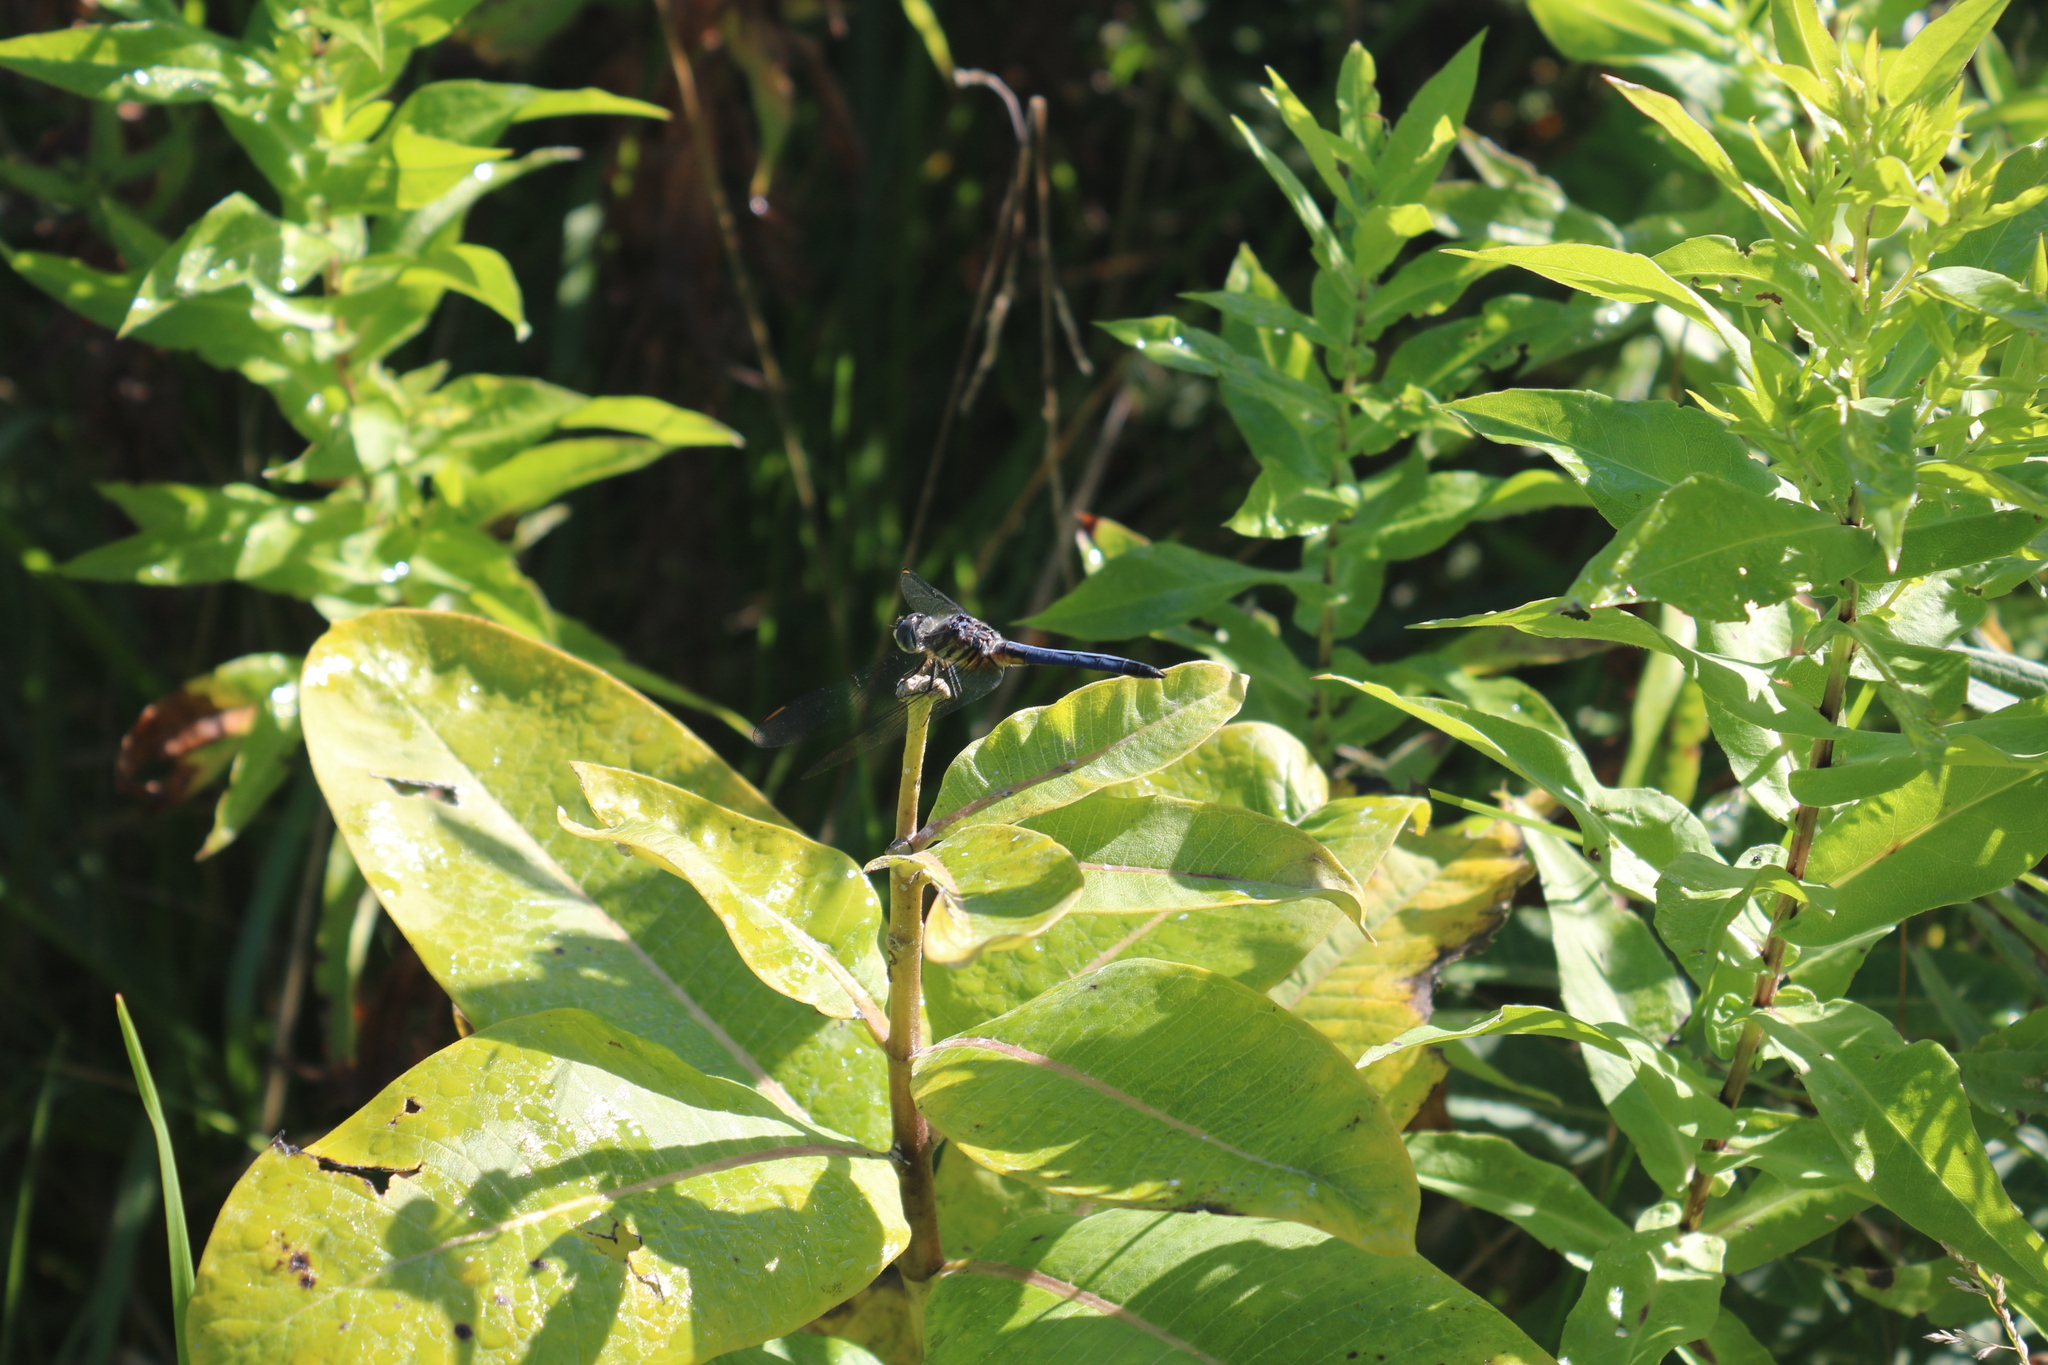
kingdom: Animalia
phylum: Arthropoda
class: Insecta
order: Odonata
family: Libellulidae
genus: Pachydiplax
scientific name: Pachydiplax longipennis
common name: Blue dasher
